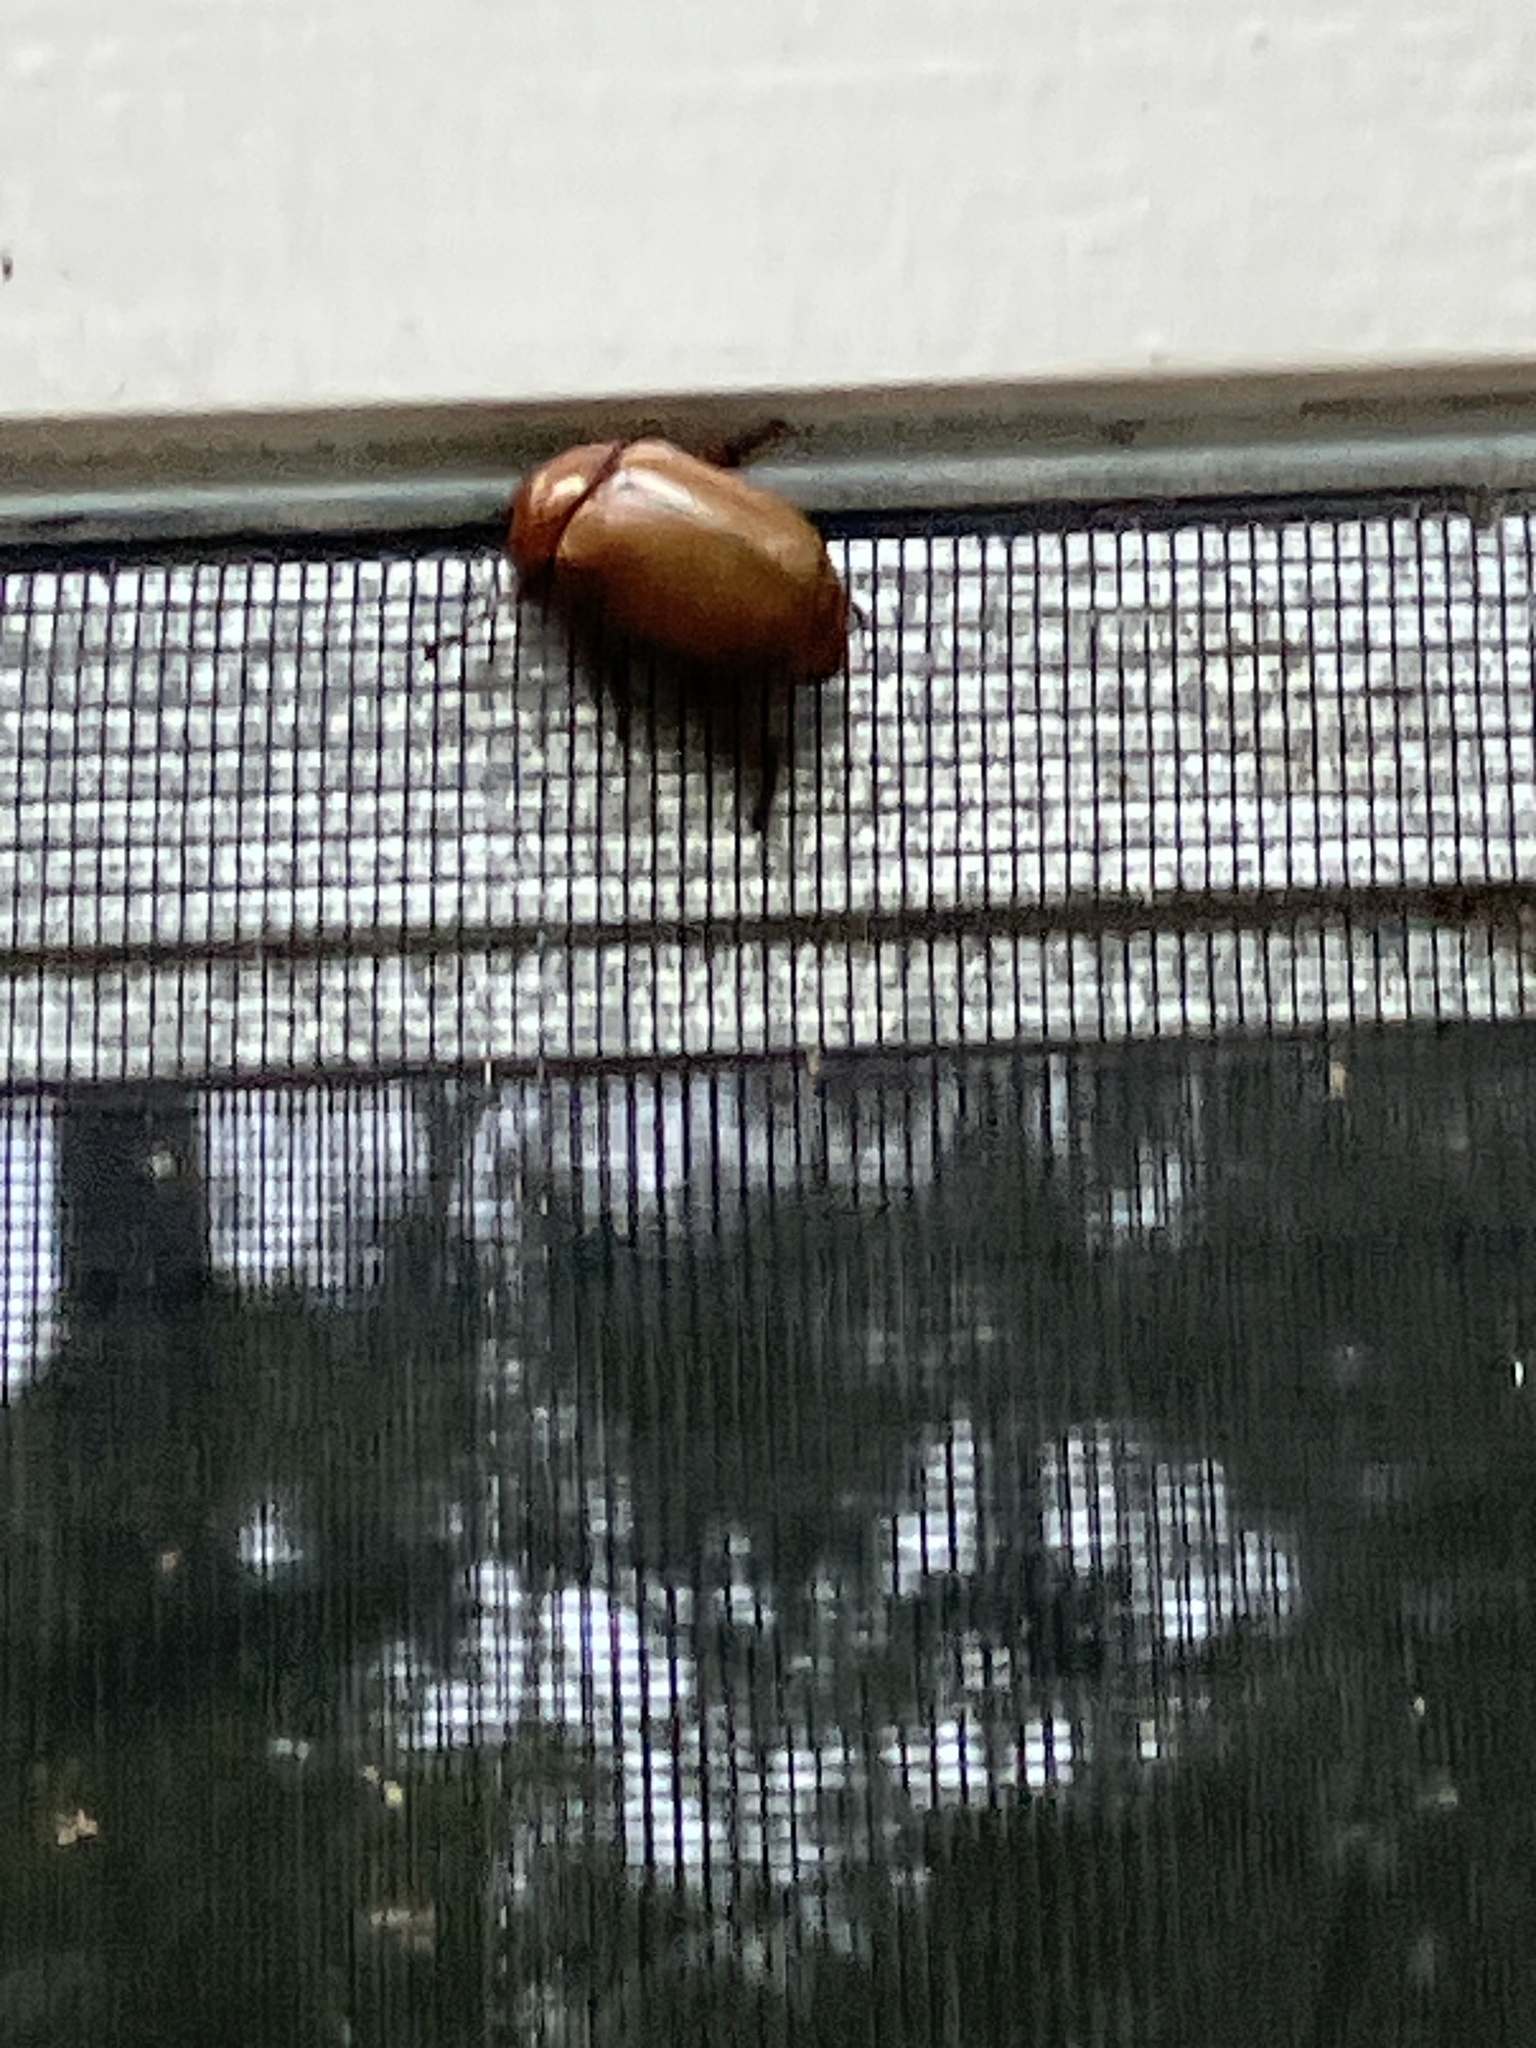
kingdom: Animalia
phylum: Arthropoda
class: Insecta
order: Coleoptera
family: Scarabaeidae
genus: Pelidnota
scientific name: Pelidnota punctata
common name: Grapevine beetle
